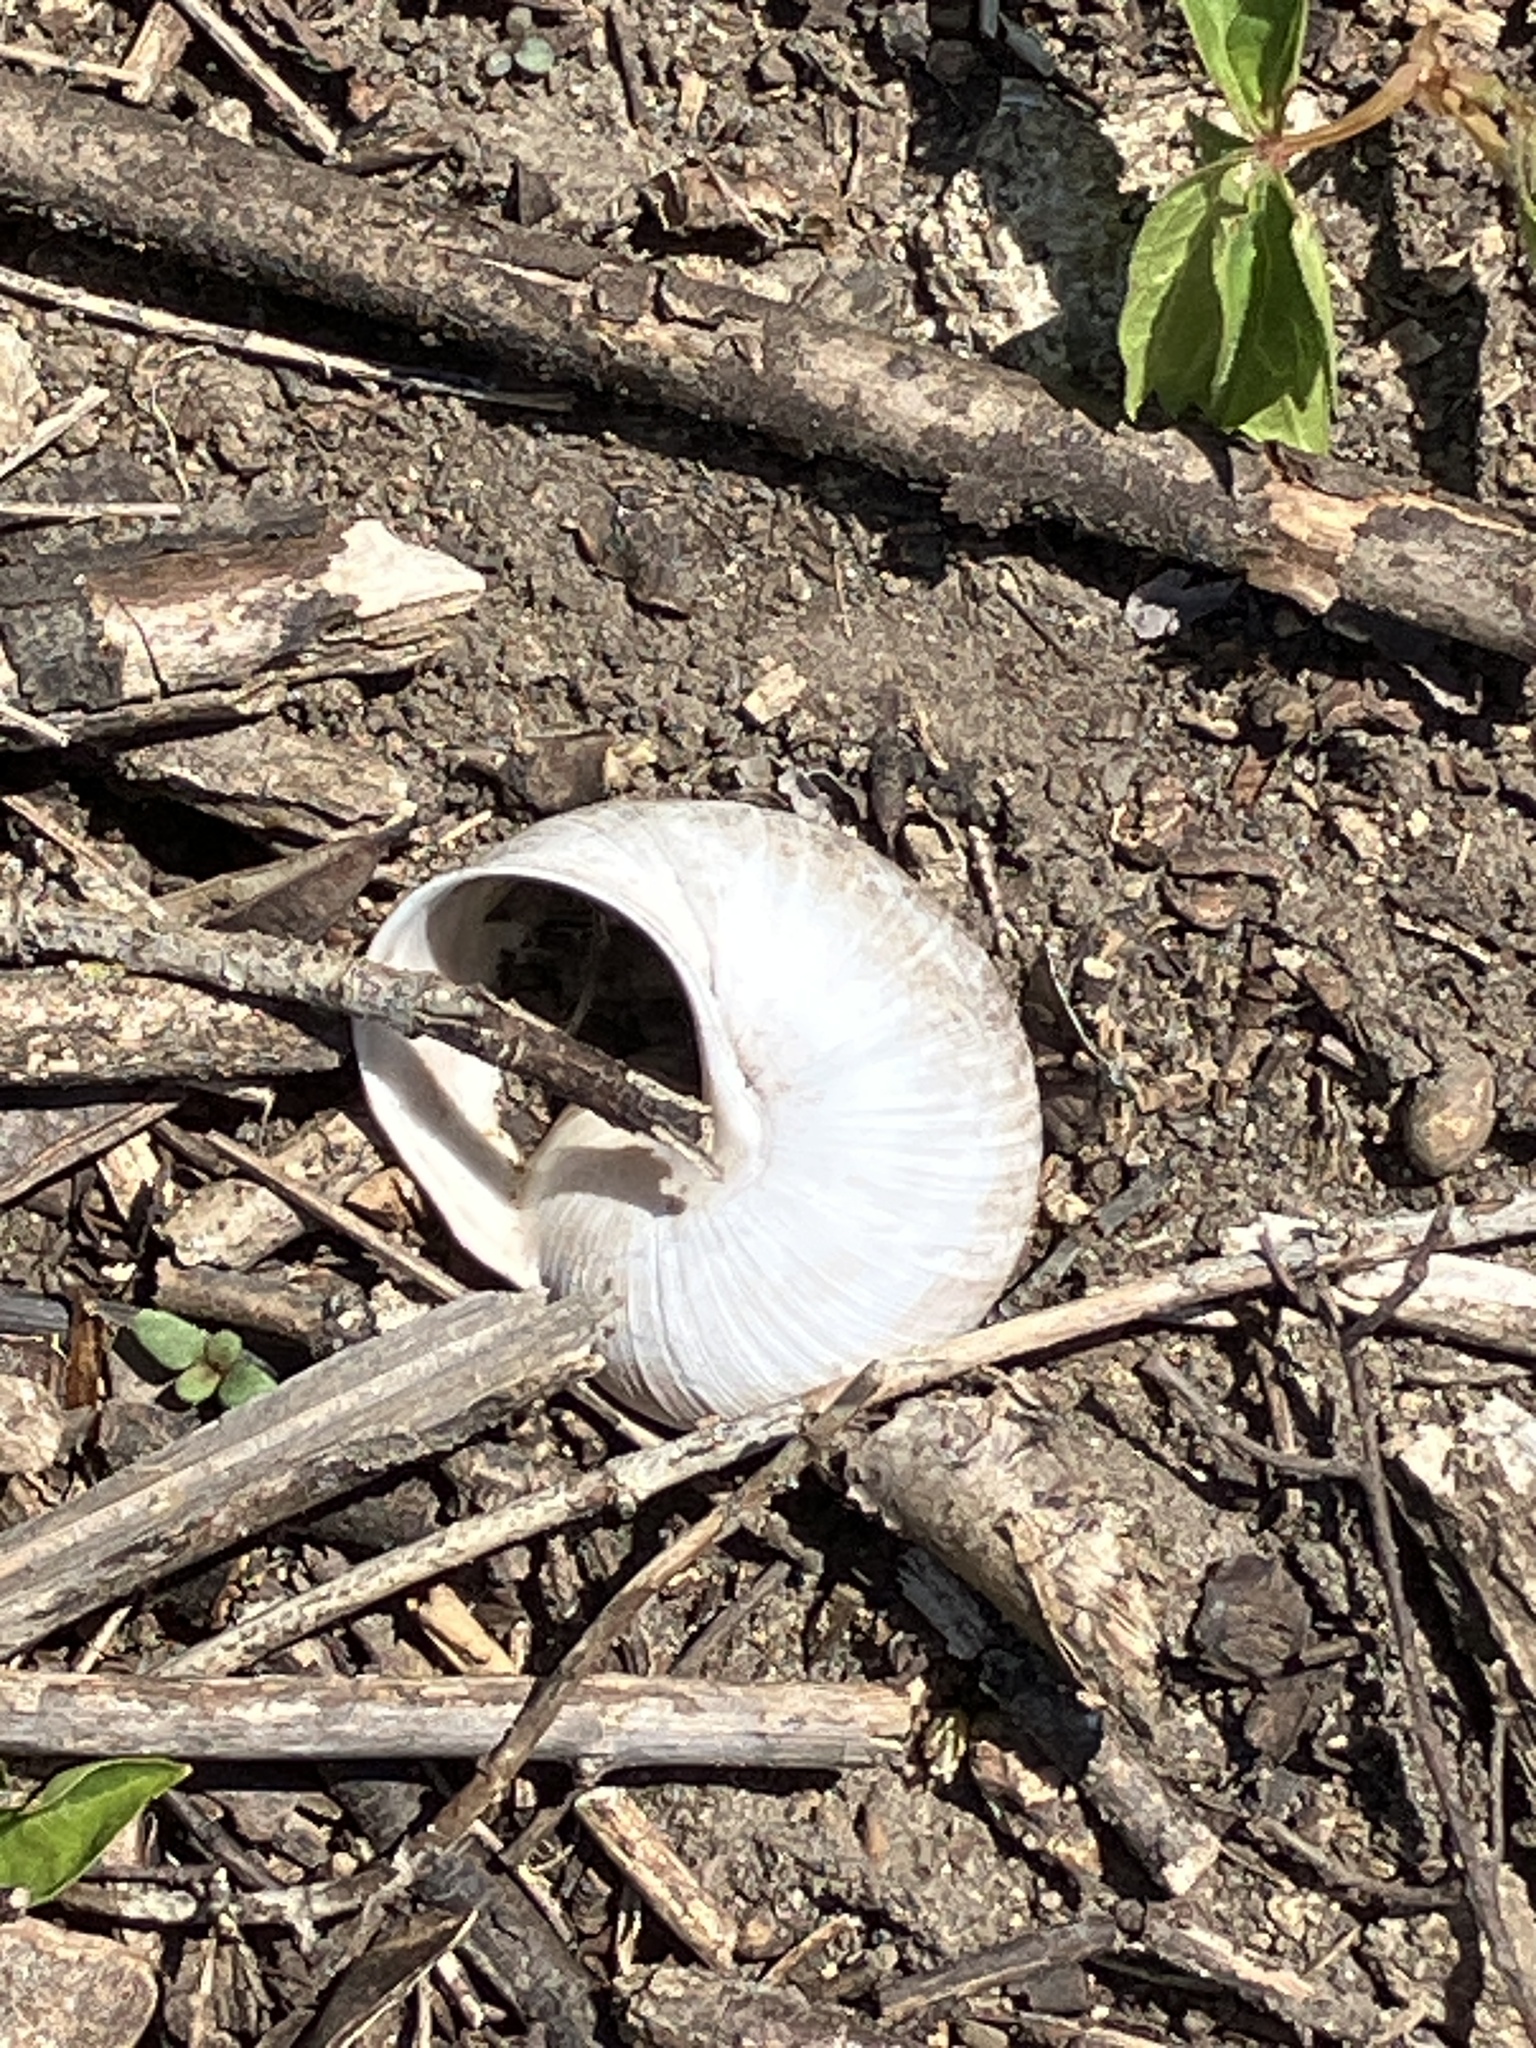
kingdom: Animalia
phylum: Mollusca
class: Gastropoda
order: Stylommatophora
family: Helicidae
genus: Helix
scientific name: Helix pomatia
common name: Roman snail
